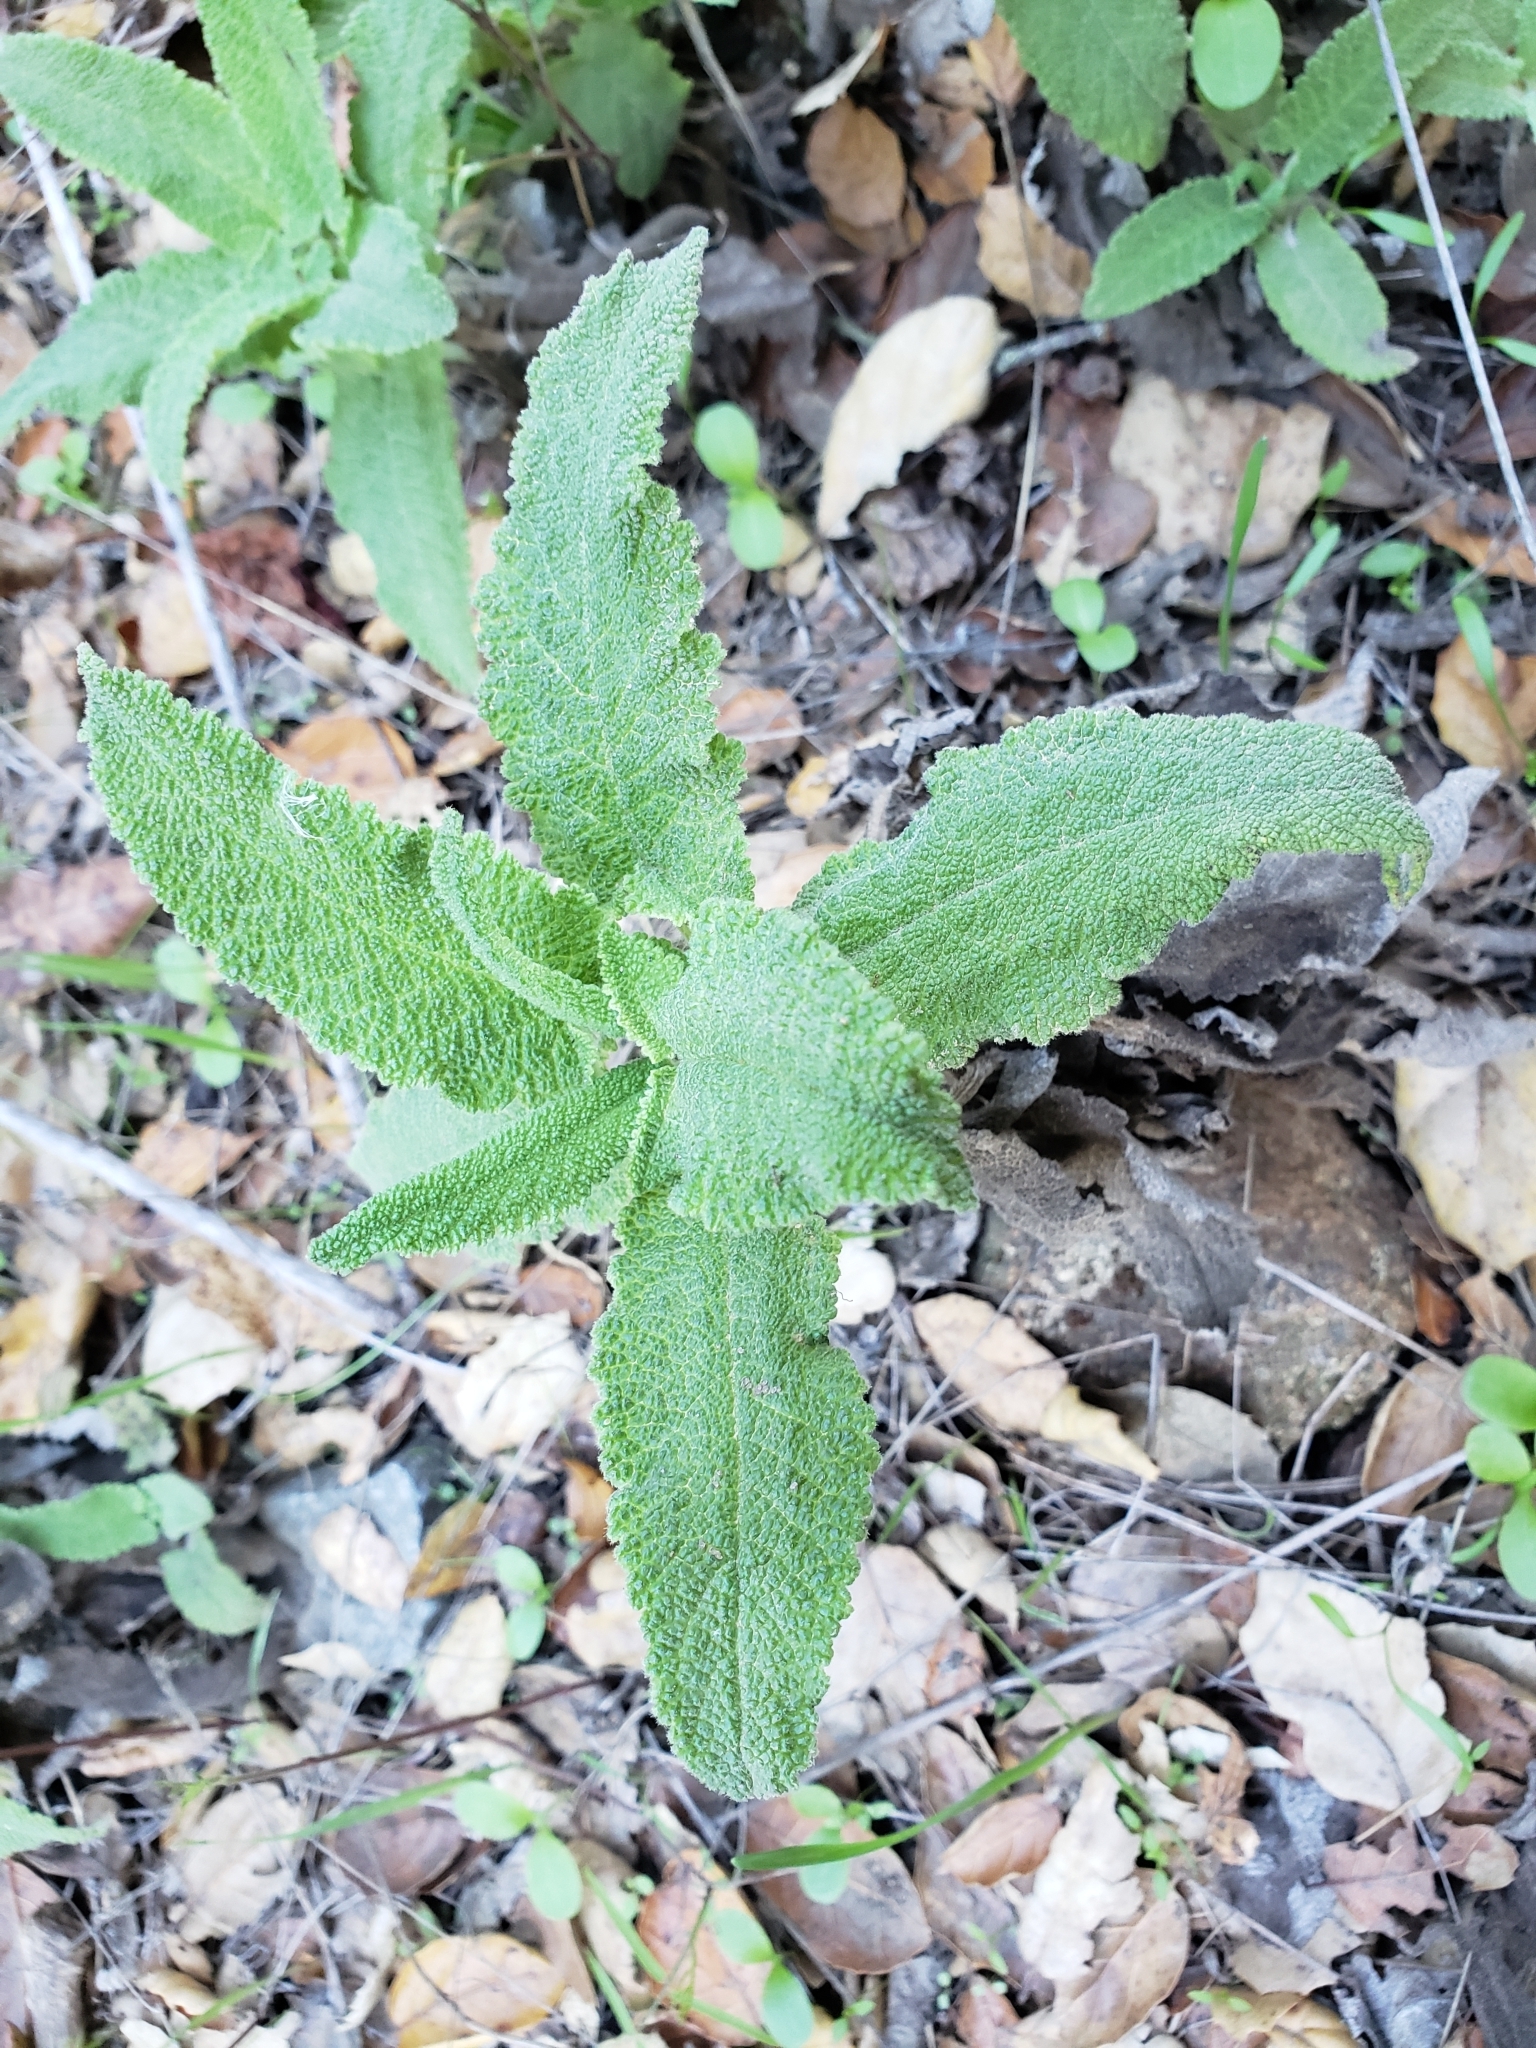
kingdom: Plantae
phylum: Tracheophyta
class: Magnoliopsida
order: Lamiales
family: Lamiaceae
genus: Salvia
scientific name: Salvia spathacea
